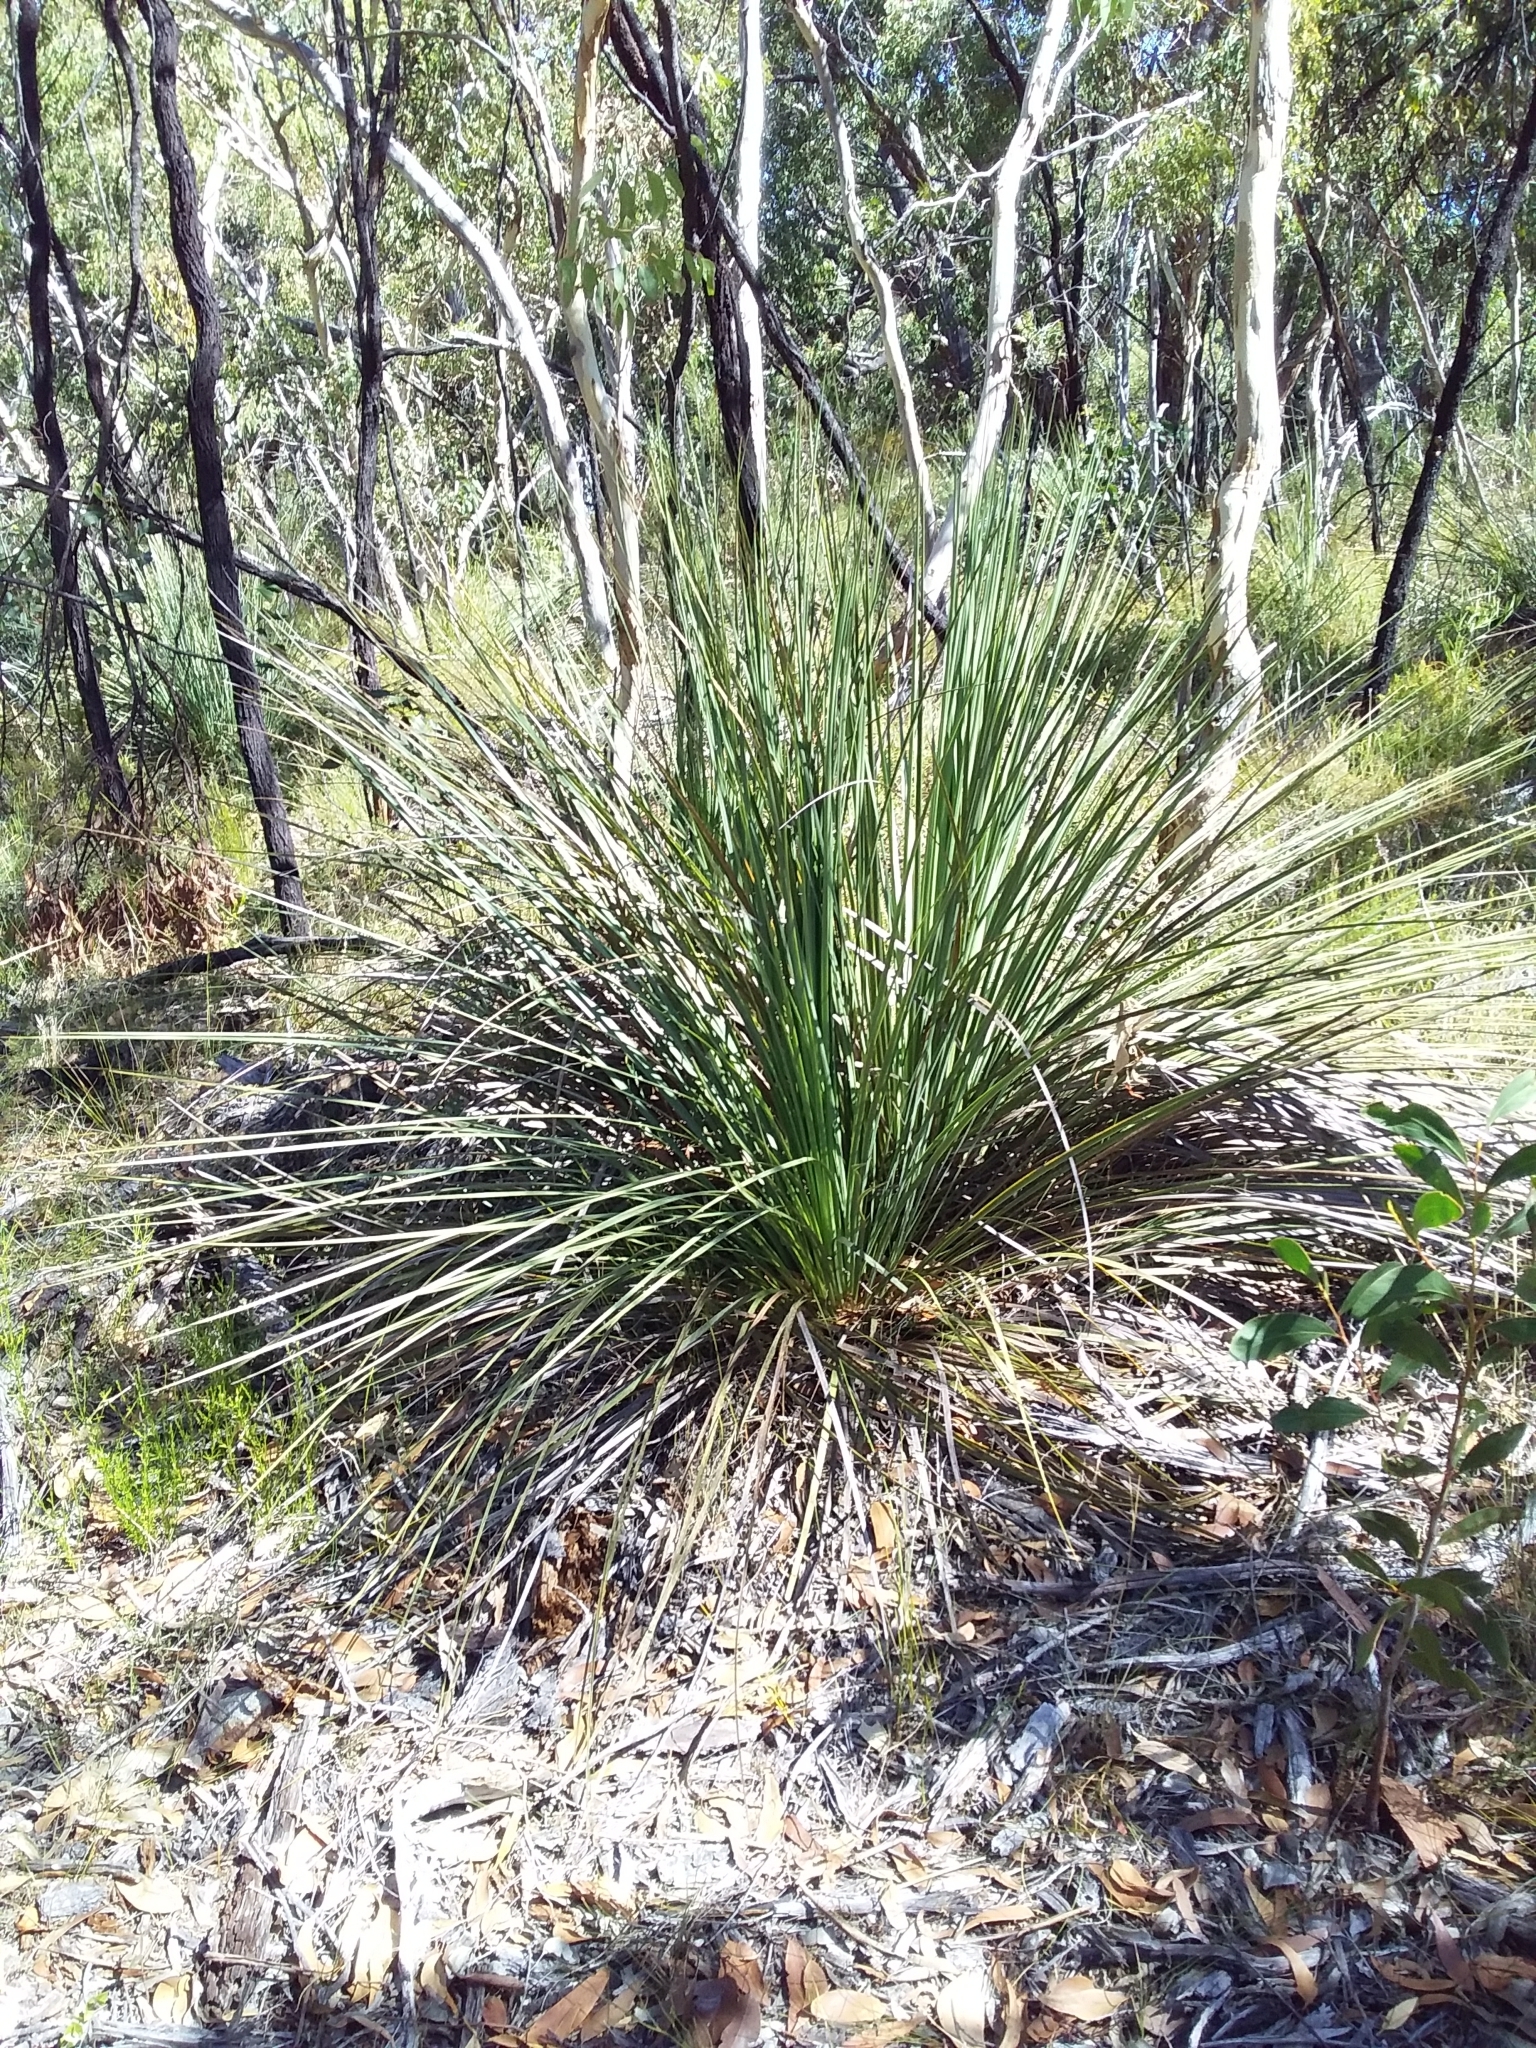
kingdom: Plantae
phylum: Tracheophyta
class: Liliopsida
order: Asparagales
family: Asphodelaceae
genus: Xanthorrhoea
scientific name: Xanthorrhoea semiplana
